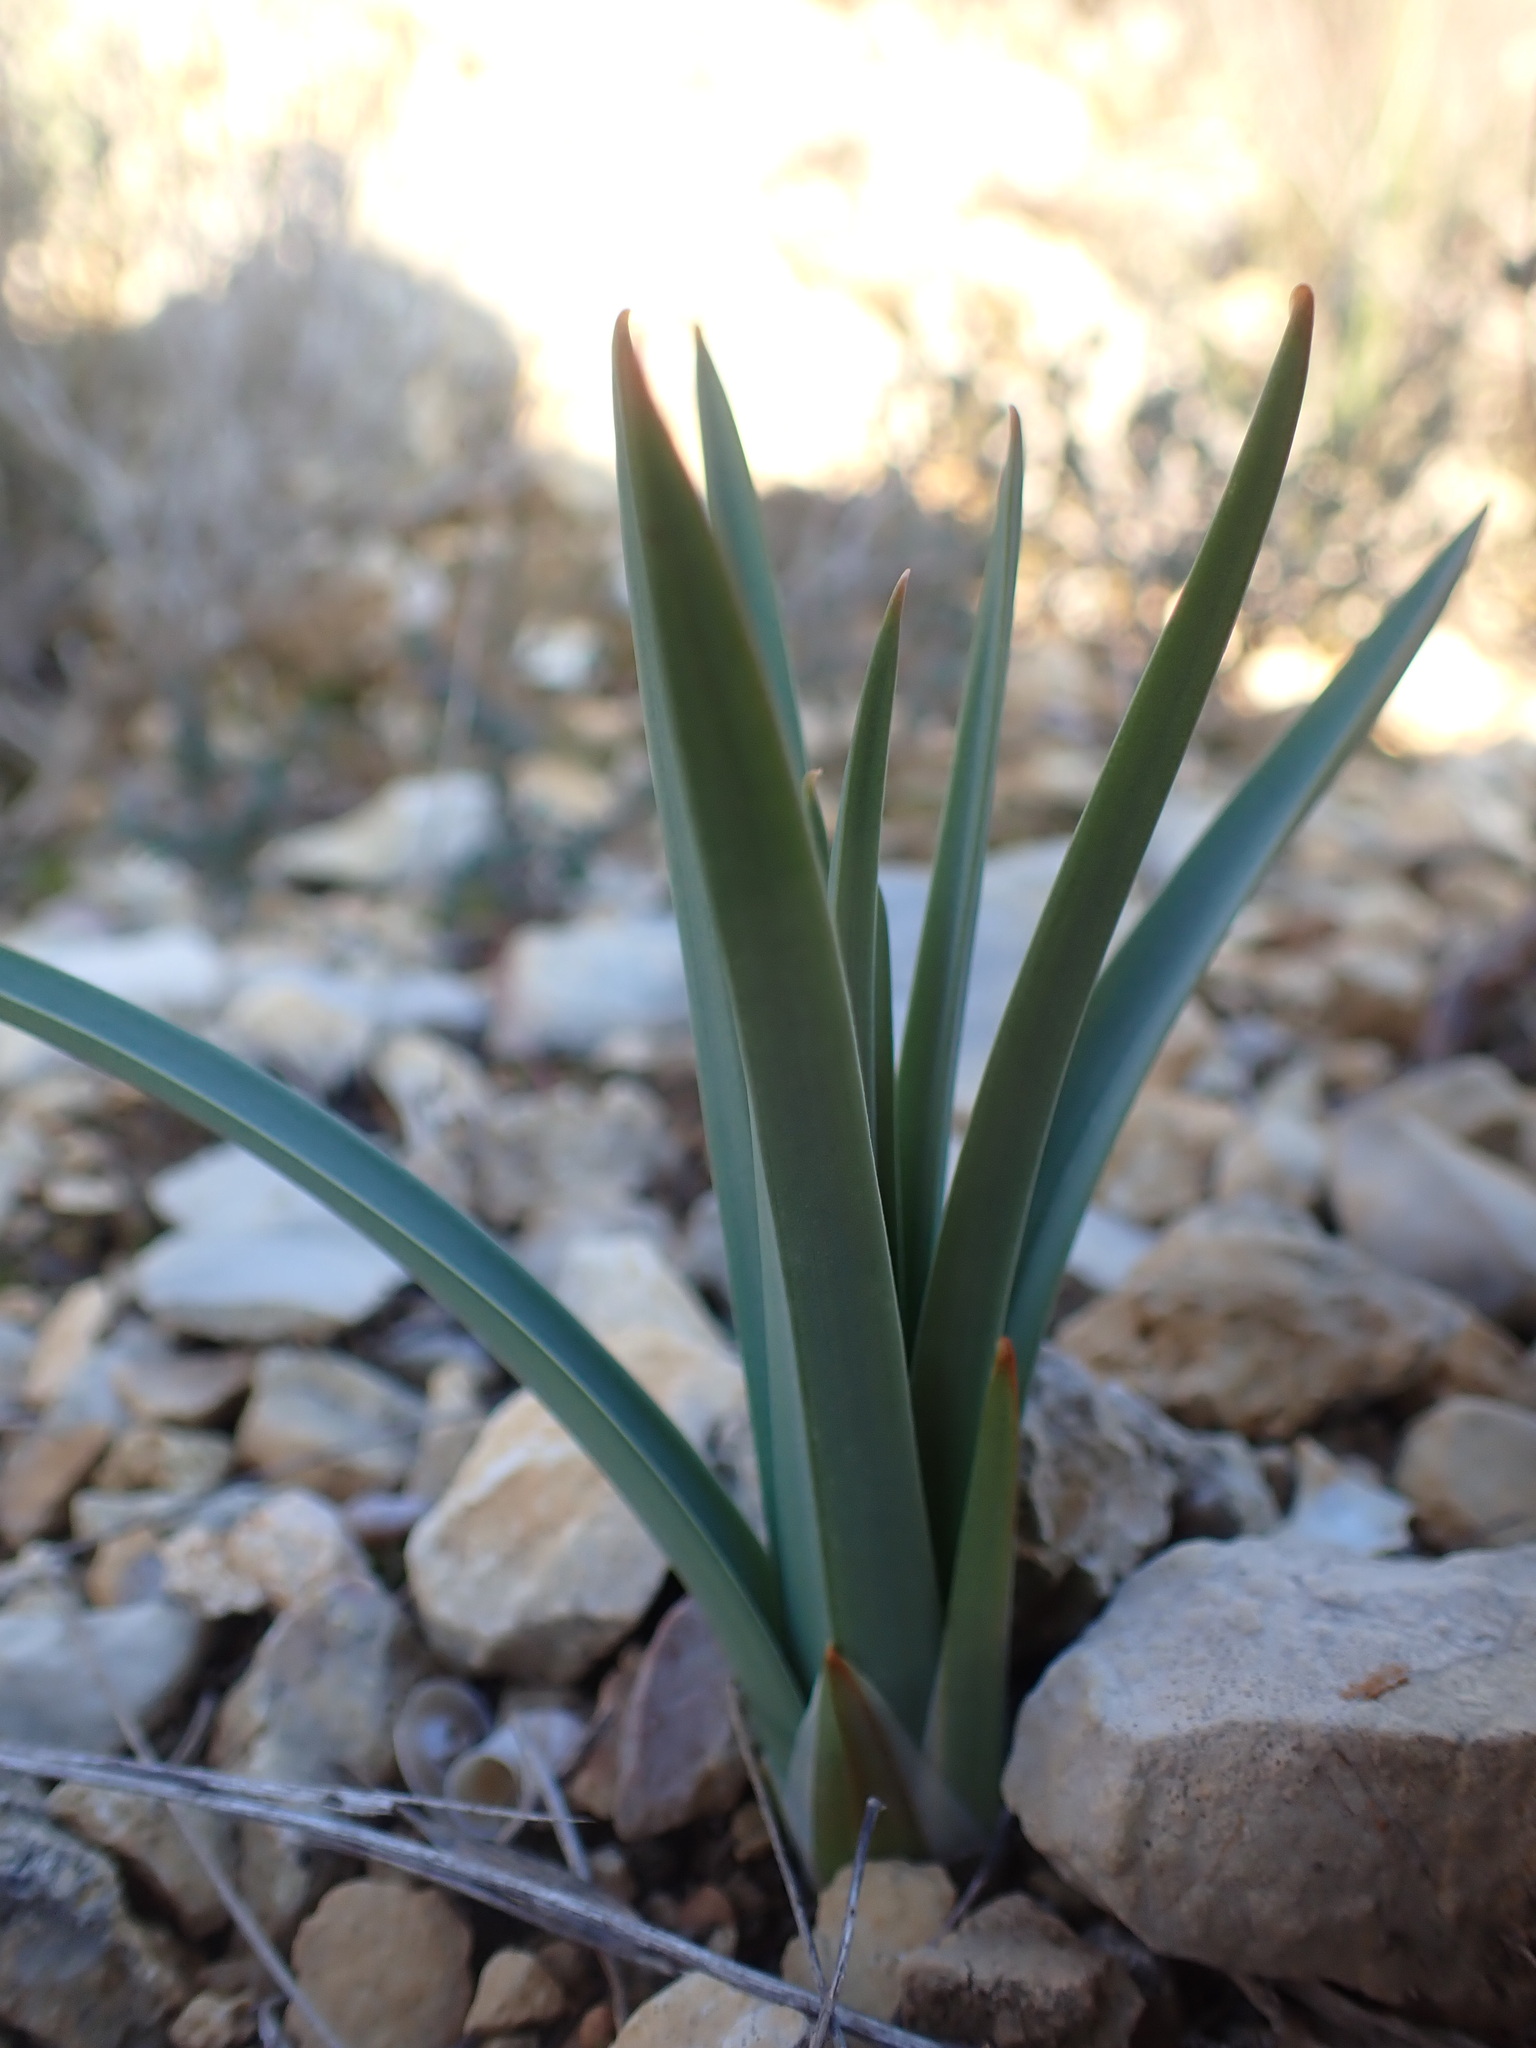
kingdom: Plantae
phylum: Tracheophyta
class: Liliopsida
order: Asparagales
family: Asphodelaceae
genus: Asphodelus
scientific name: Asphodelus cerasifer
